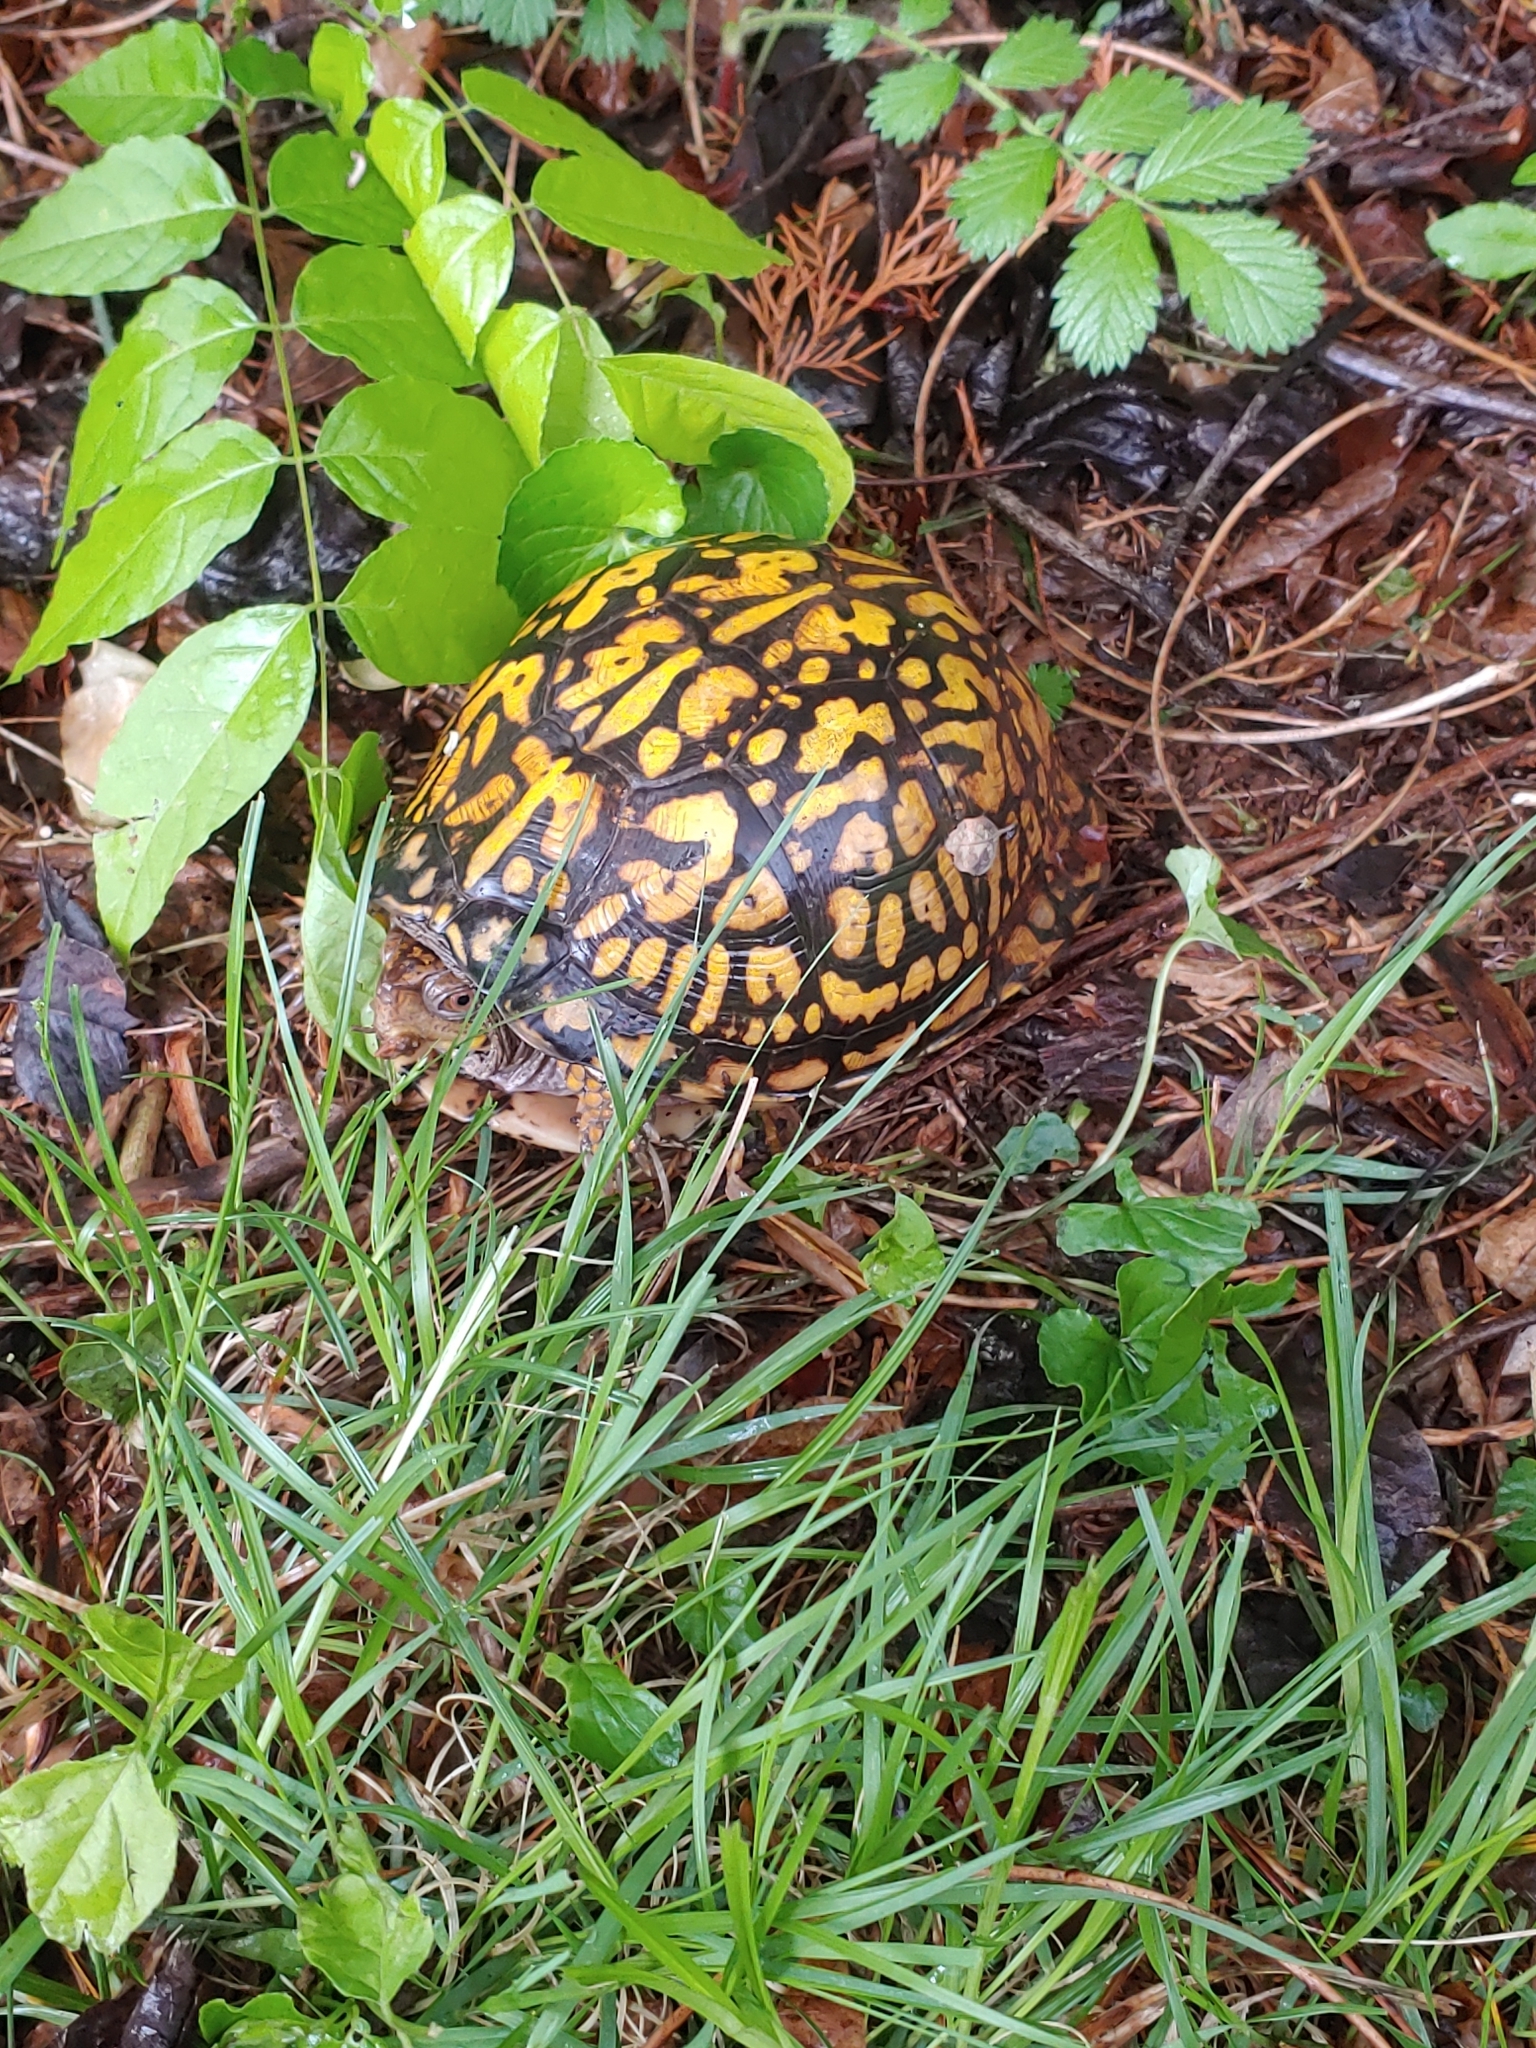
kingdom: Animalia
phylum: Chordata
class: Testudines
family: Emydidae
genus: Terrapene
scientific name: Terrapene carolina
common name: Common box turtle
